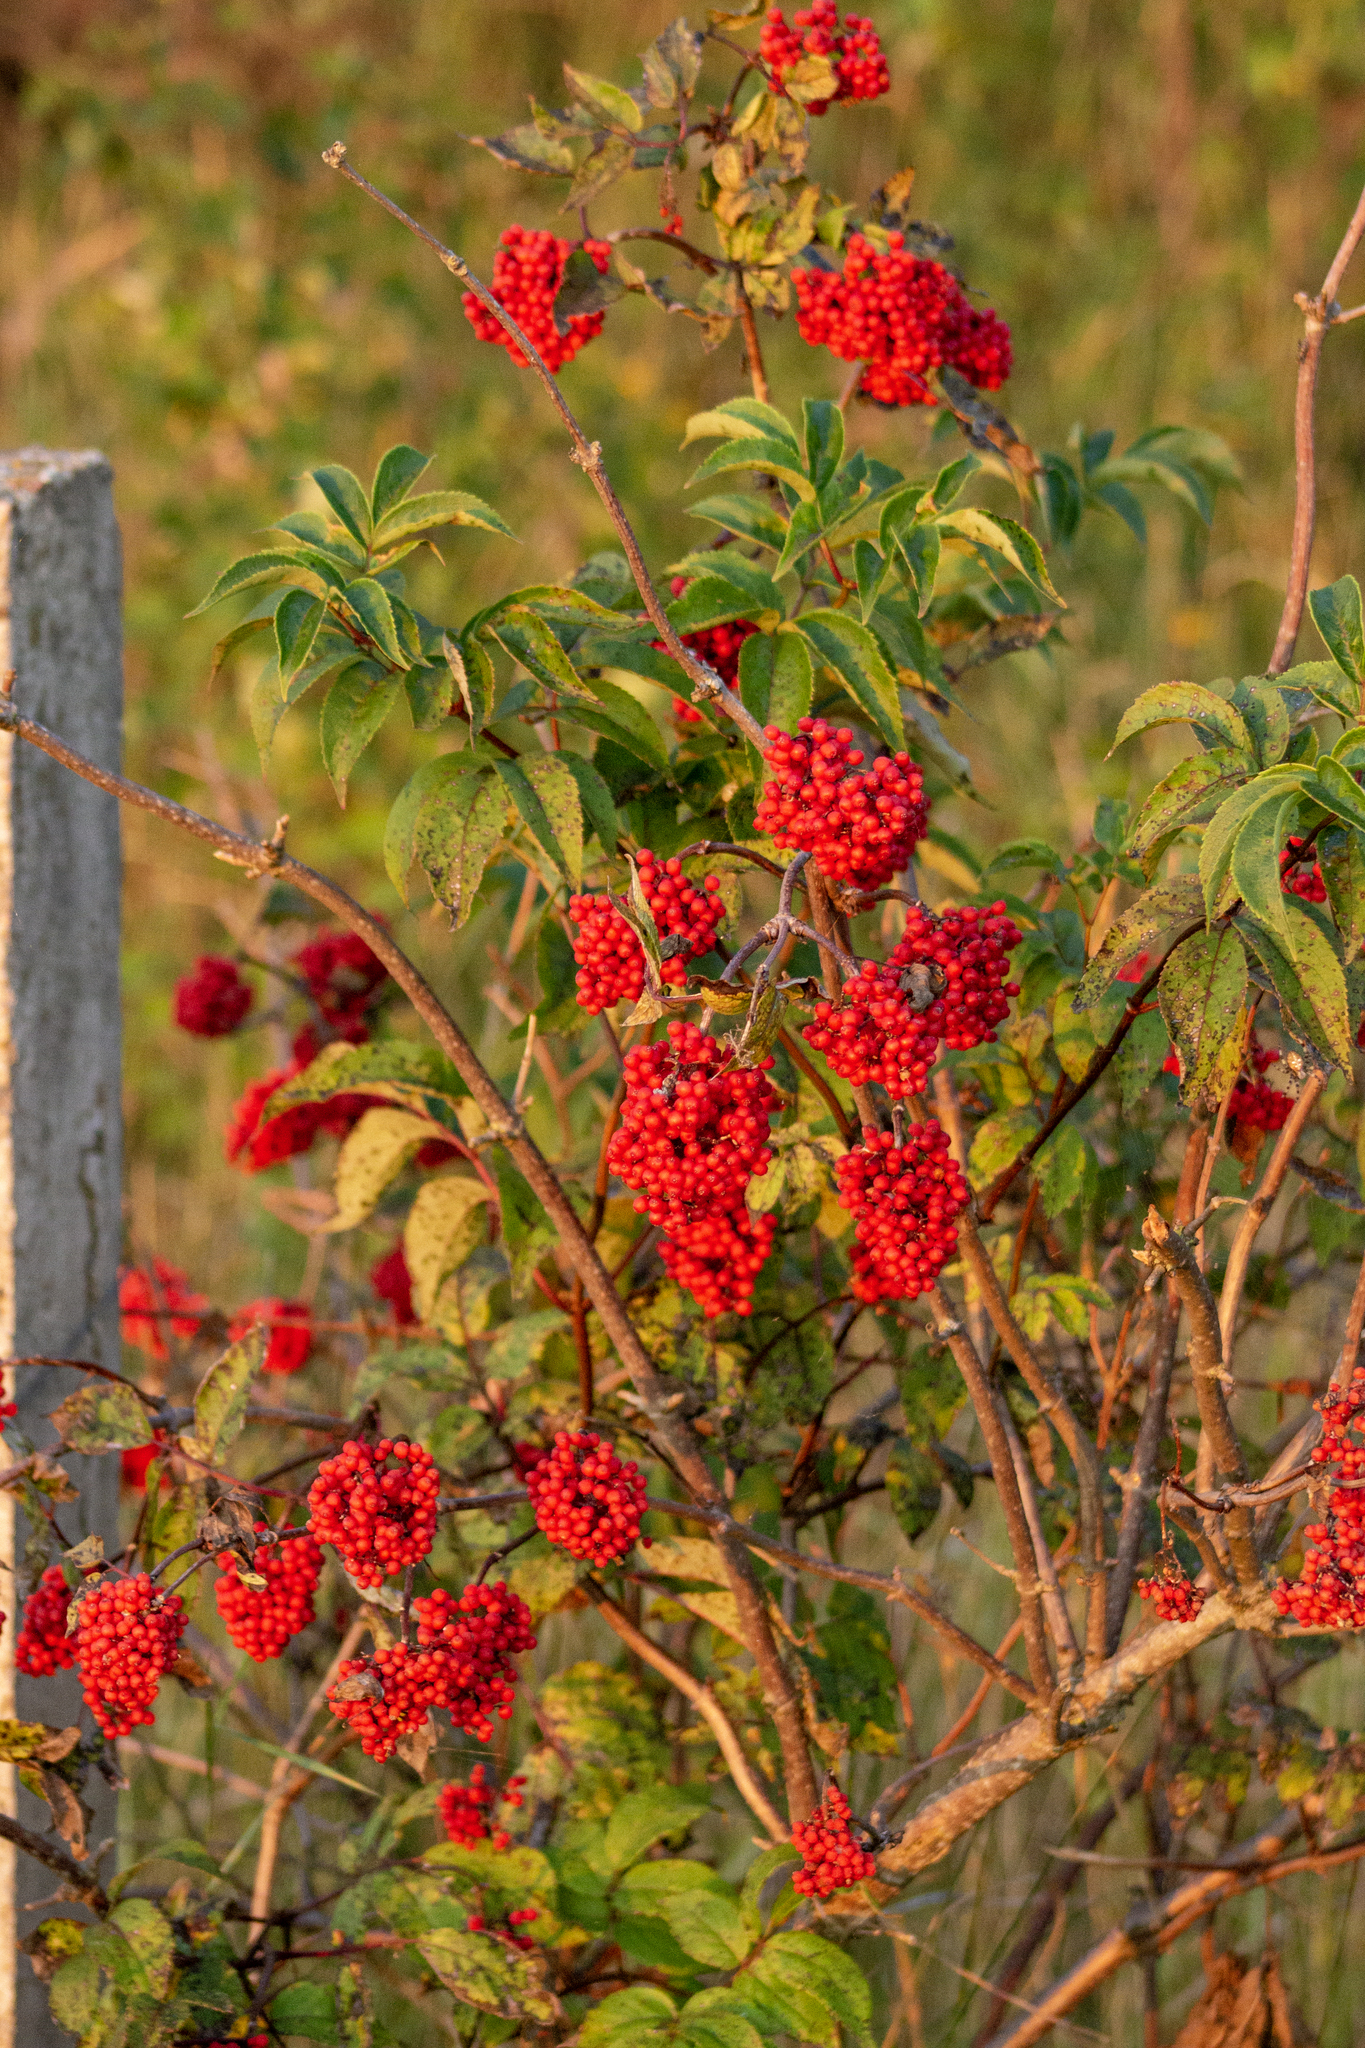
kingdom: Plantae
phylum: Tracheophyta
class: Magnoliopsida
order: Dipsacales
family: Viburnaceae
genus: Sambucus
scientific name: Sambucus racemosa
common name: Red-berried elder
